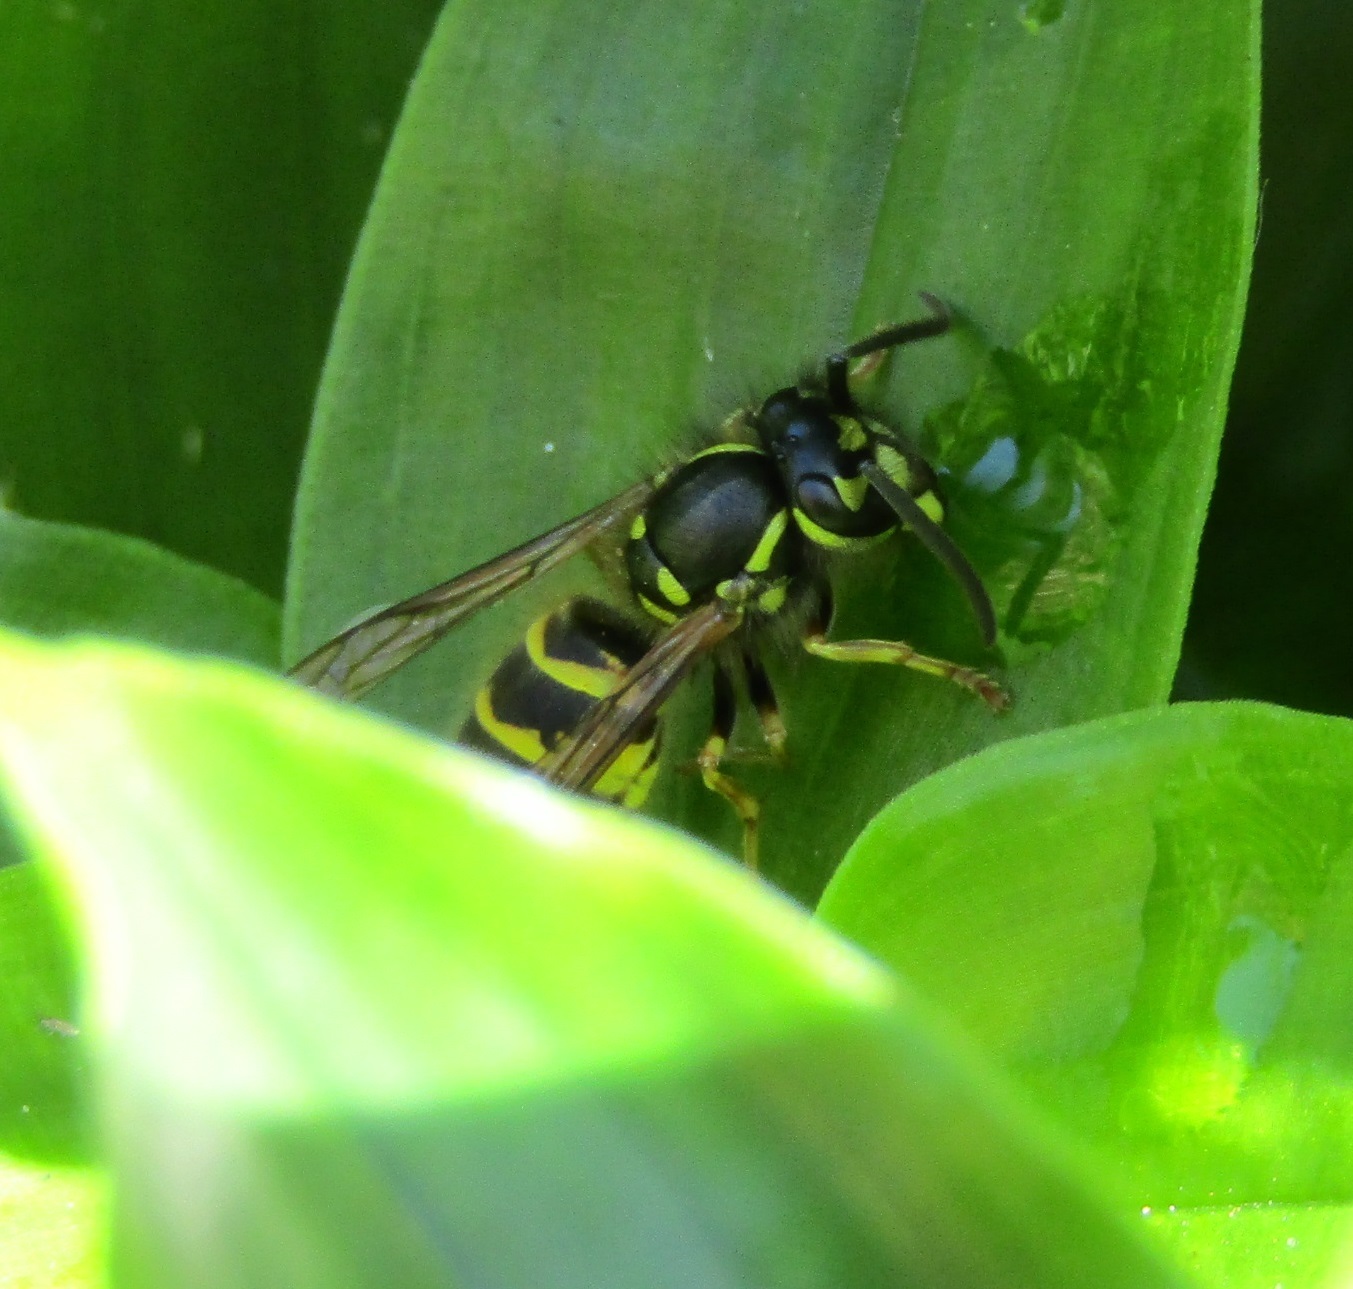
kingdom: Animalia
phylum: Arthropoda
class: Insecta
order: Hymenoptera
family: Vespidae
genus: Vespula
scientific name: Vespula vulgaris
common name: Common wasp
